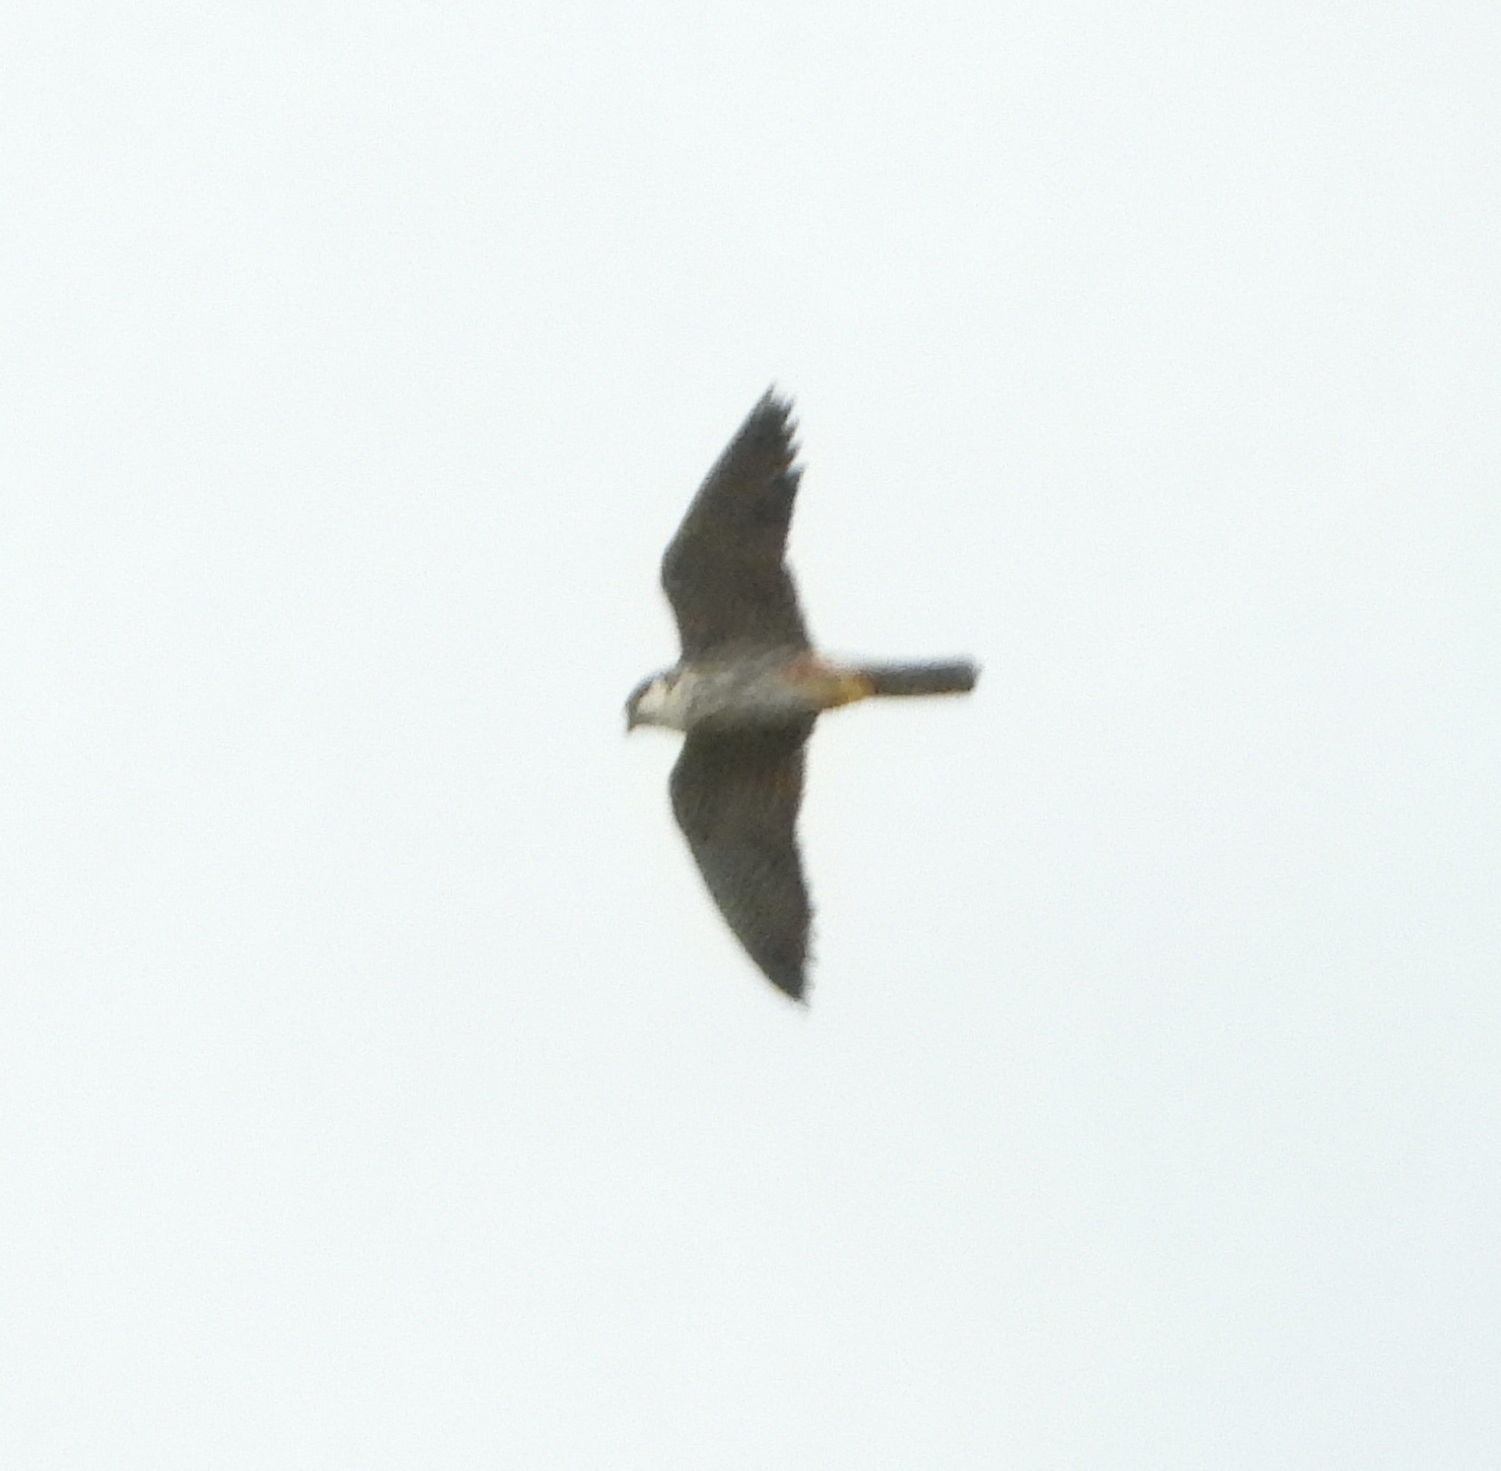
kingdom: Animalia
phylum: Chordata
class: Aves
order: Falconiformes
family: Falconidae
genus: Falco
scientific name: Falco subbuteo
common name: Eurasian hobby
